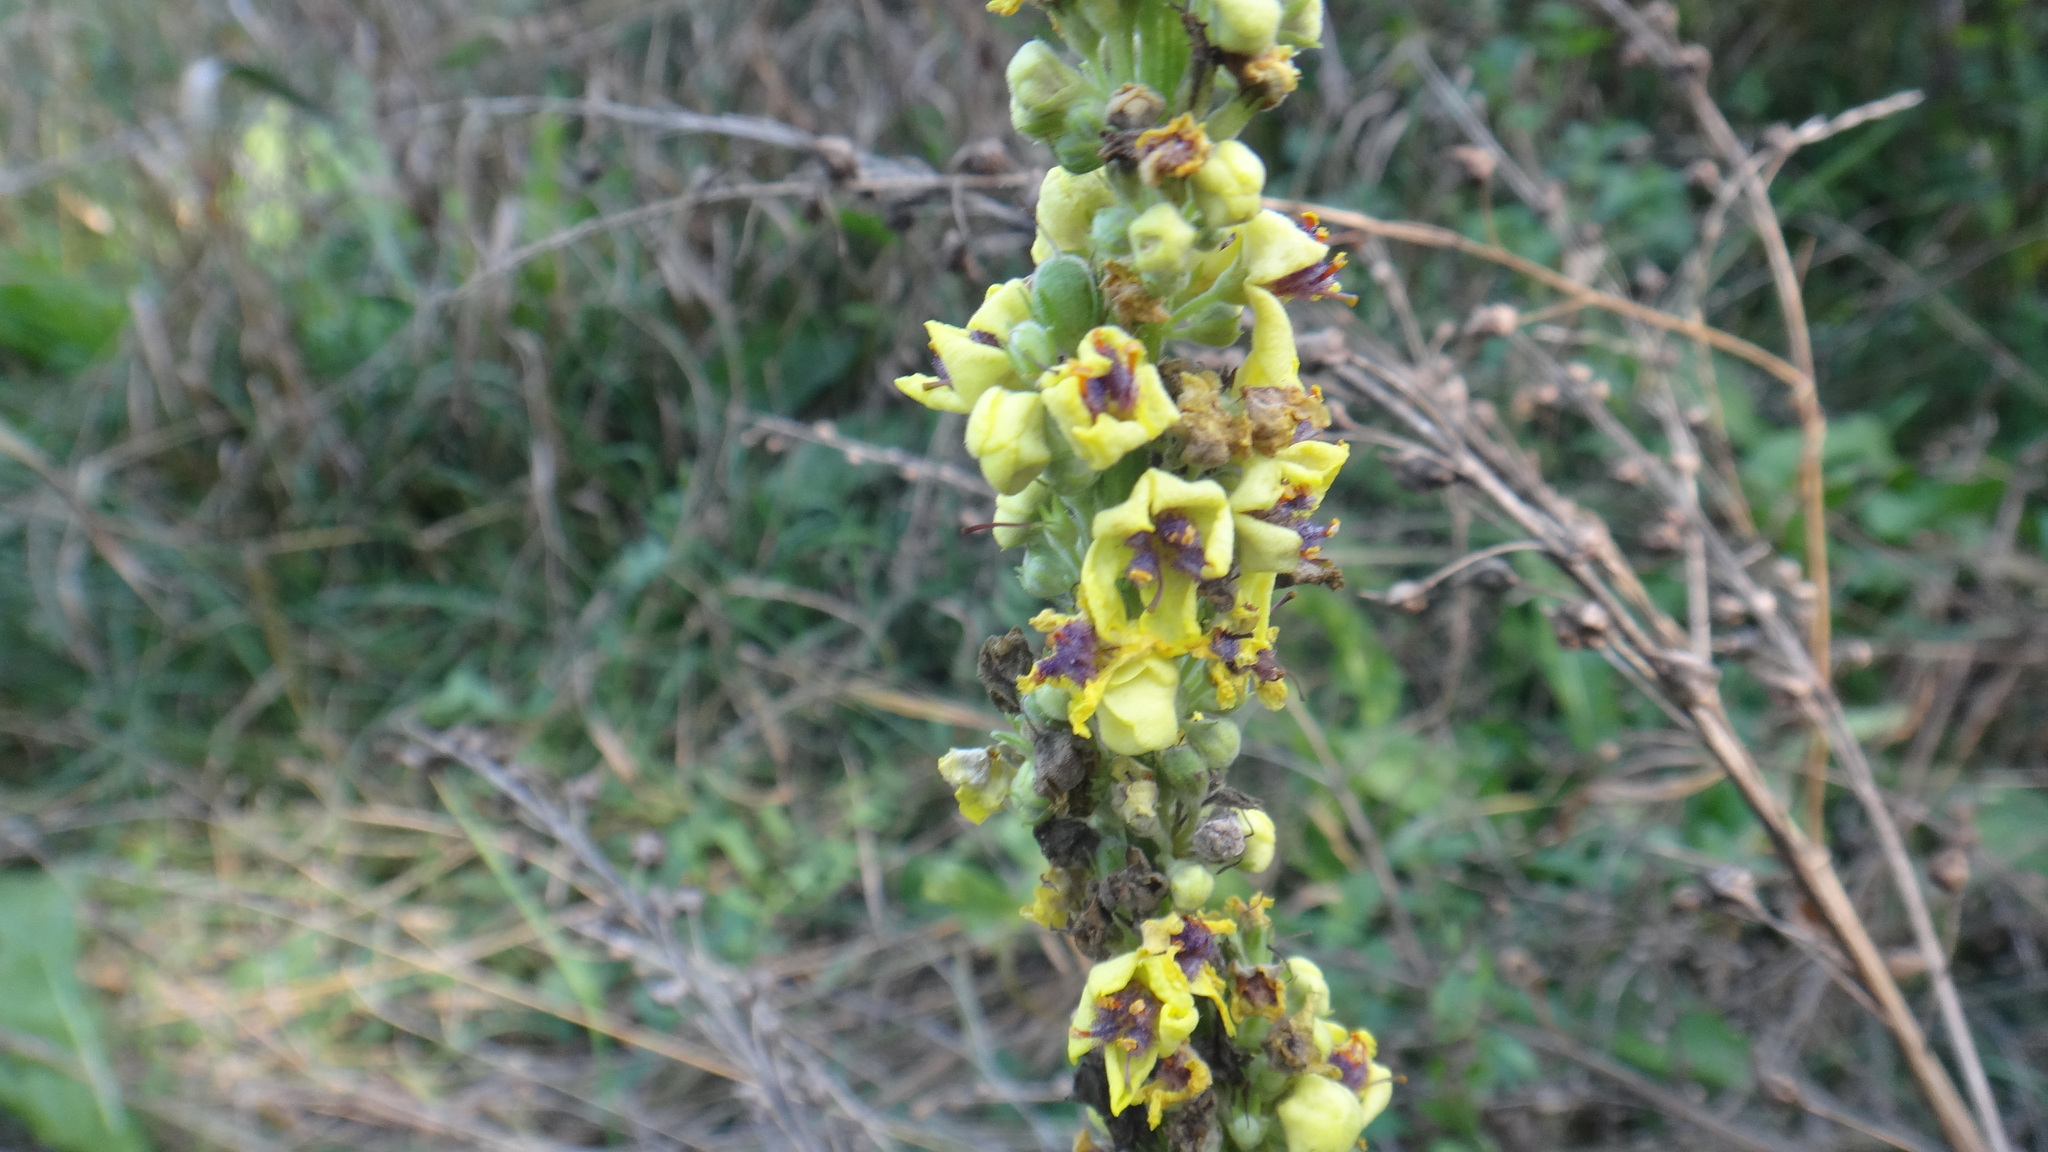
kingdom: Plantae
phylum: Tracheophyta
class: Magnoliopsida
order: Lamiales
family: Scrophulariaceae
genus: Verbascum
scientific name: Verbascum nigrum
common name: Dark mullein
